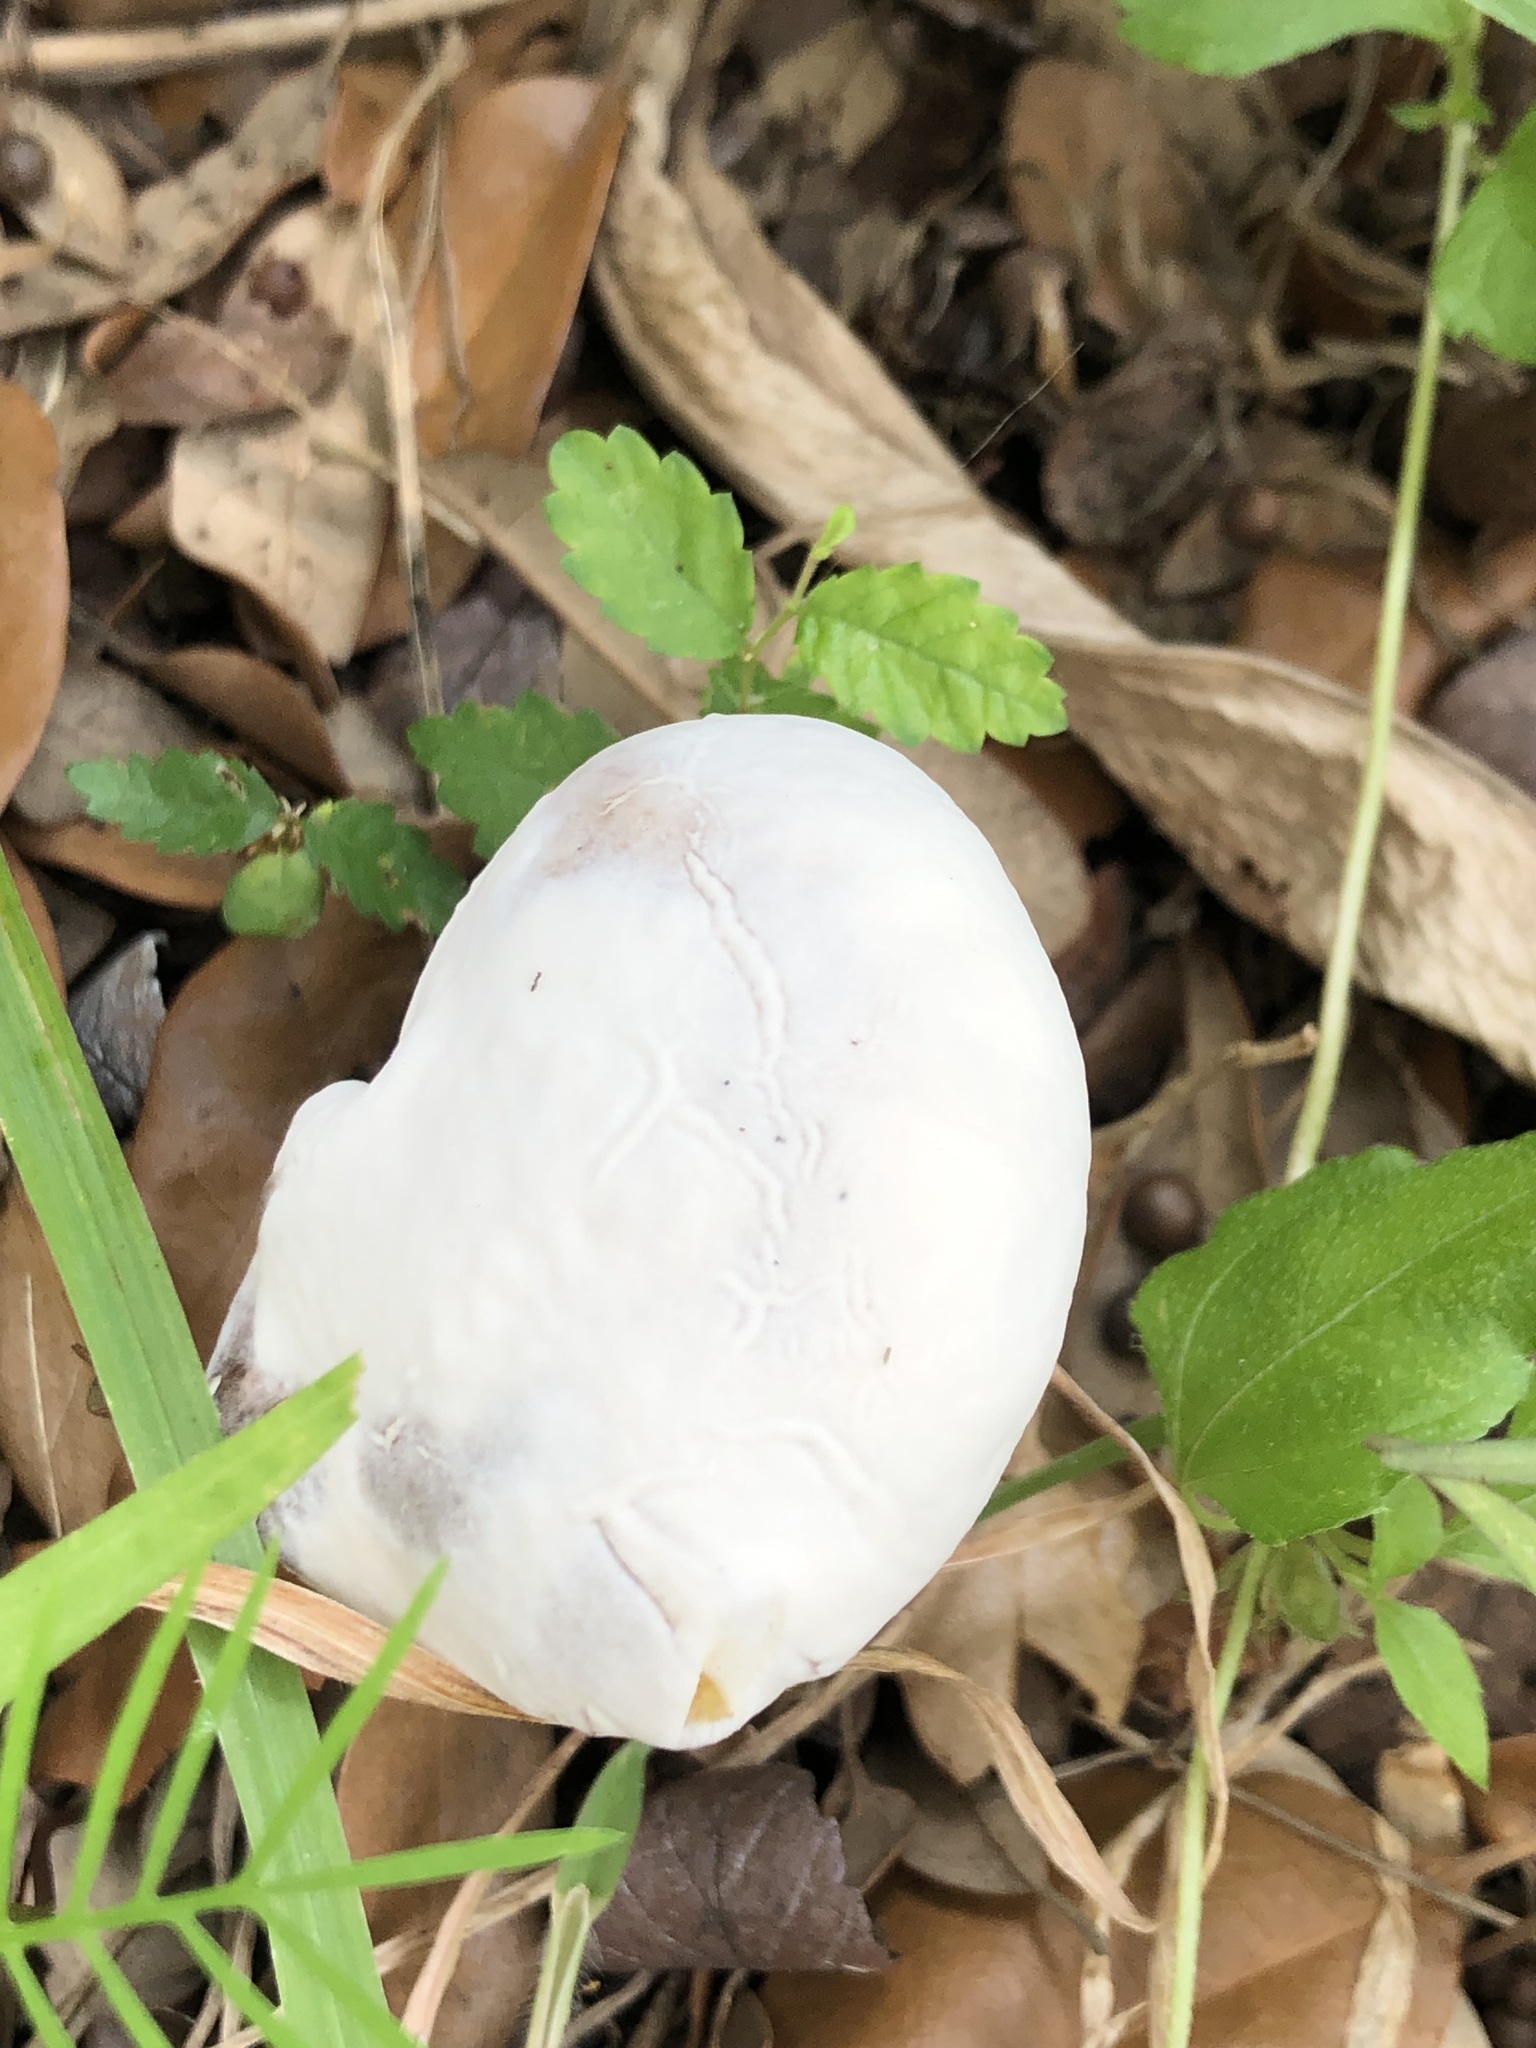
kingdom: Fungi
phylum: Ascomycota
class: Sordariomycetes
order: Hypocreales
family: Hypocreaceae
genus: Hypomyces
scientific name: Hypomyces chrysospermus
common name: Bolete mould
